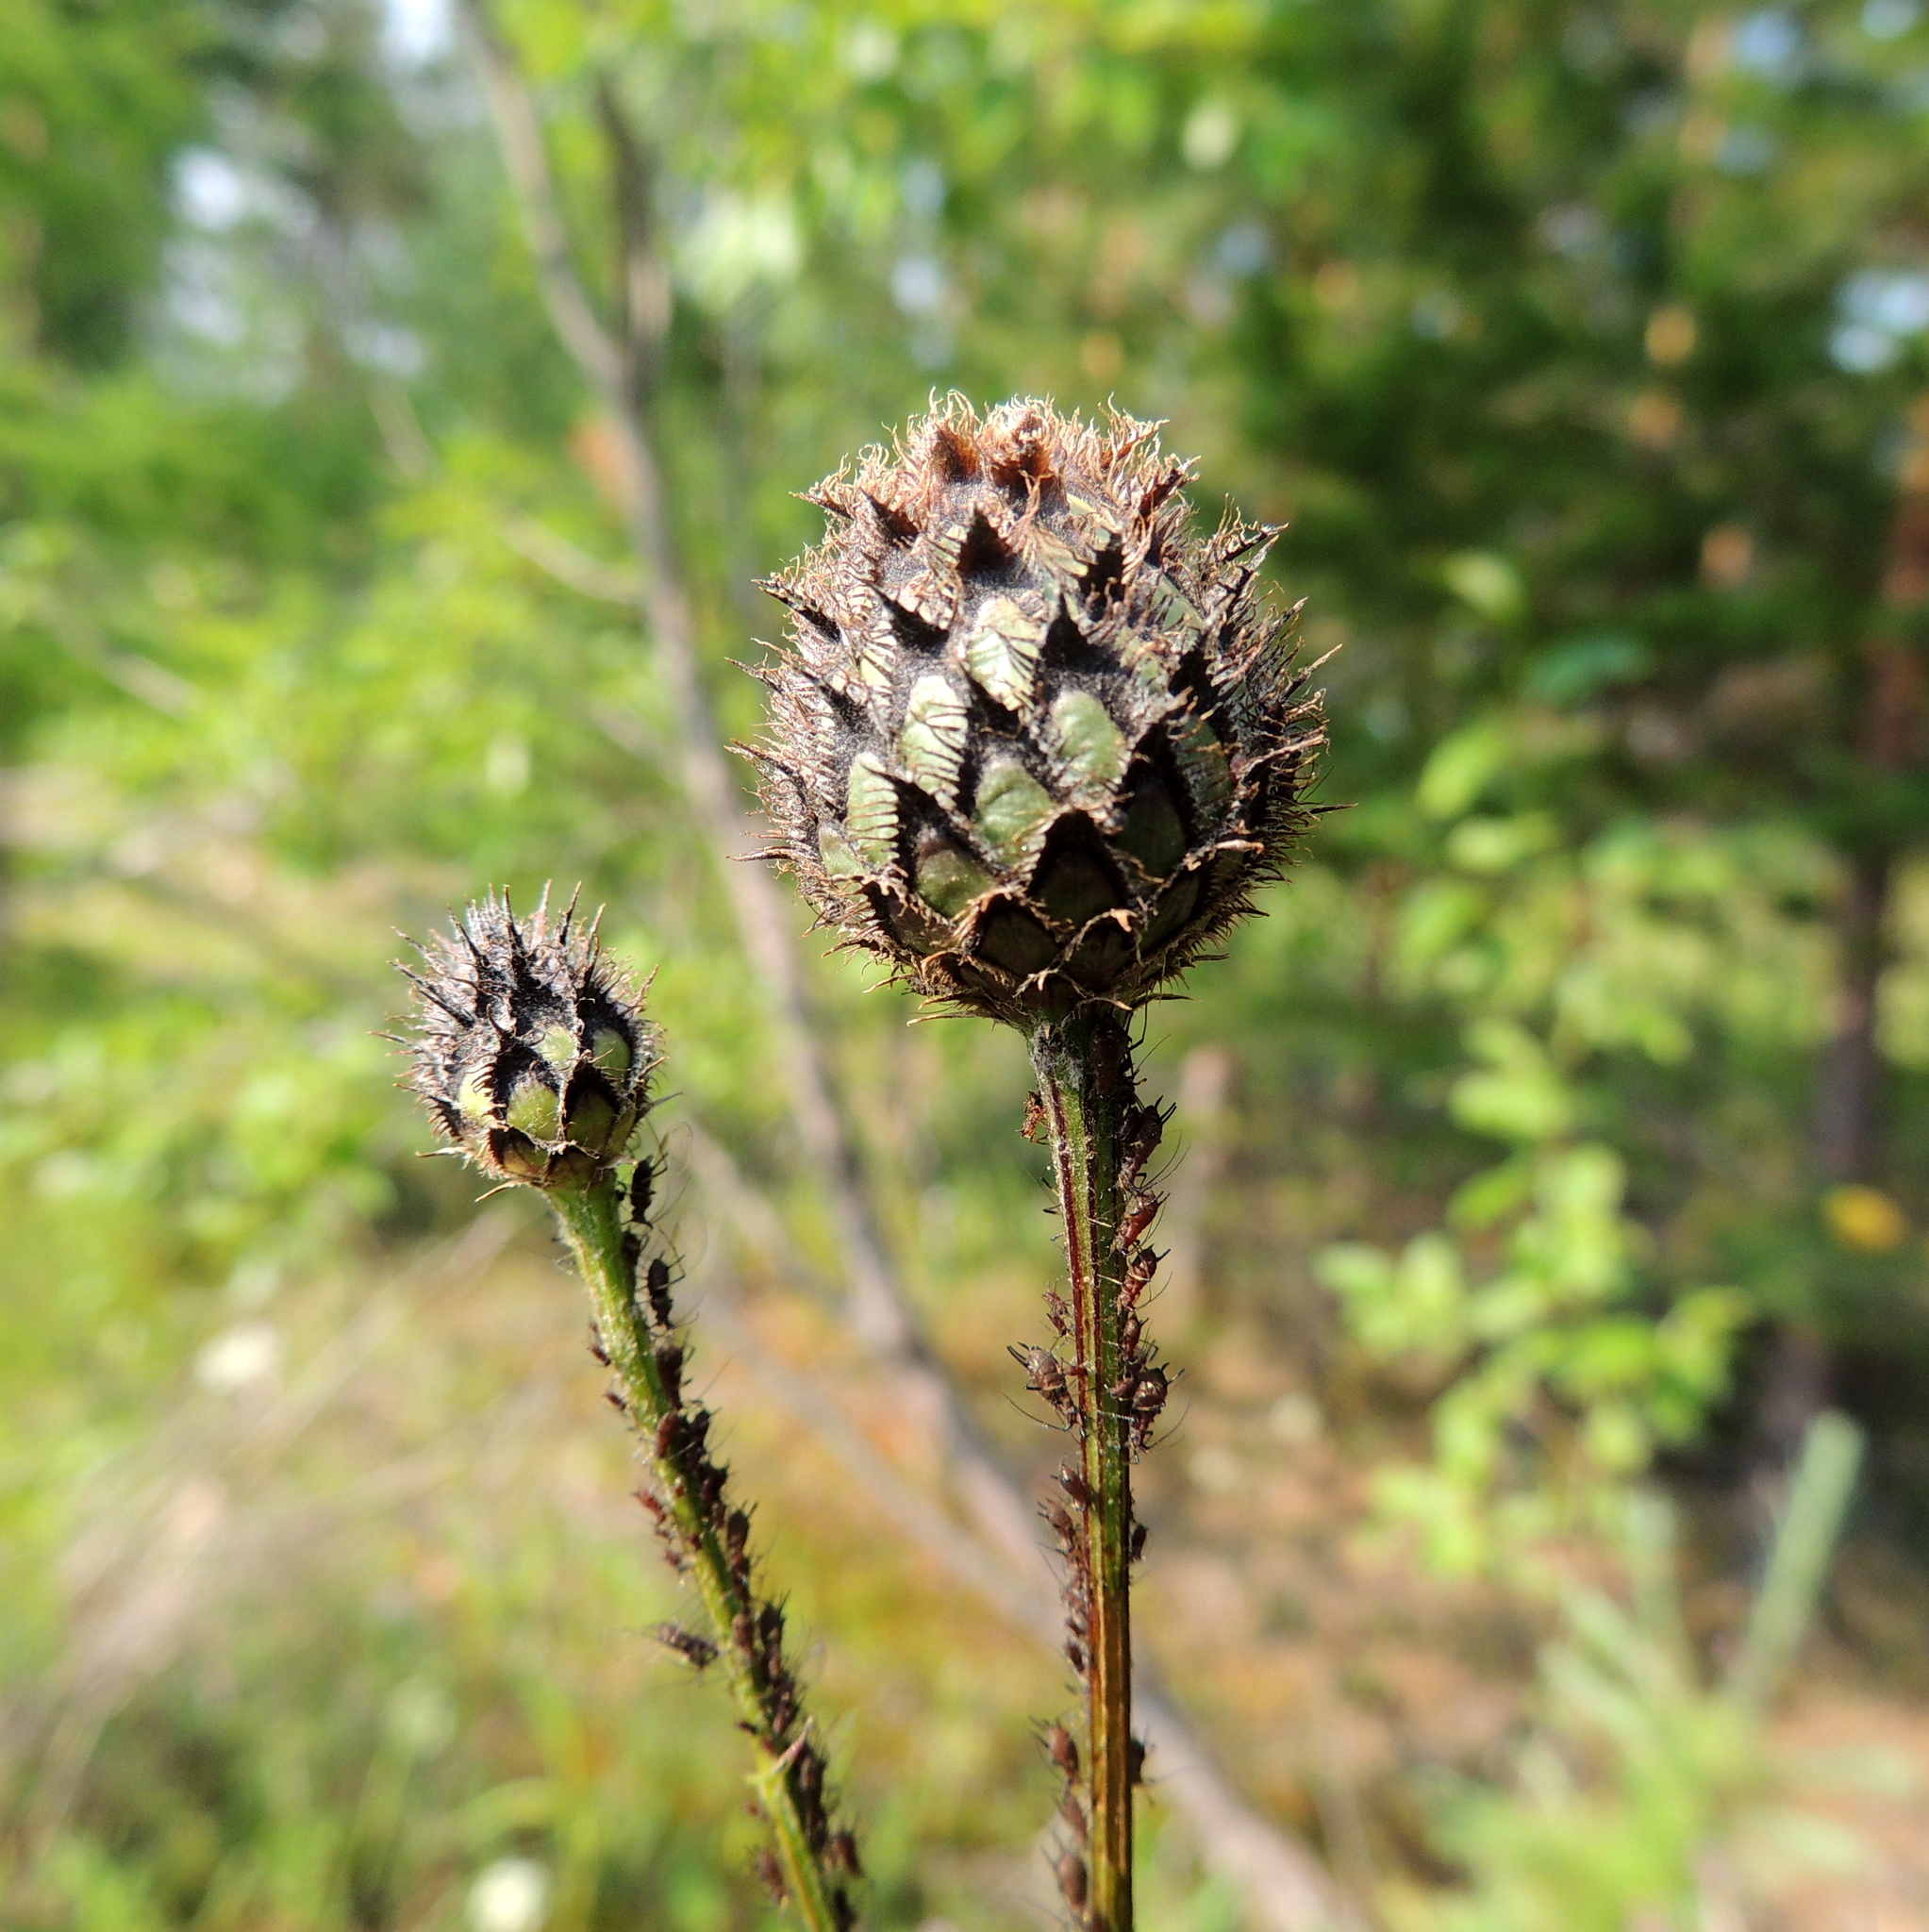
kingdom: Plantae
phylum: Tracheophyta
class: Magnoliopsida
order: Asterales
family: Asteraceae
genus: Centaurea
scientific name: Centaurea scabiosa
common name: Greater knapweed
